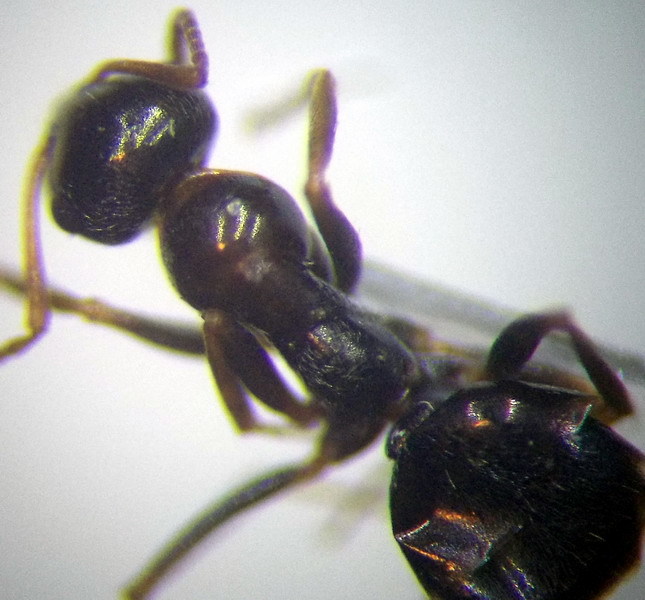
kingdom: Animalia
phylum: Arthropoda
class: Insecta
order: Hymenoptera
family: Formicidae
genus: Proformica
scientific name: Proformica epinotalis
